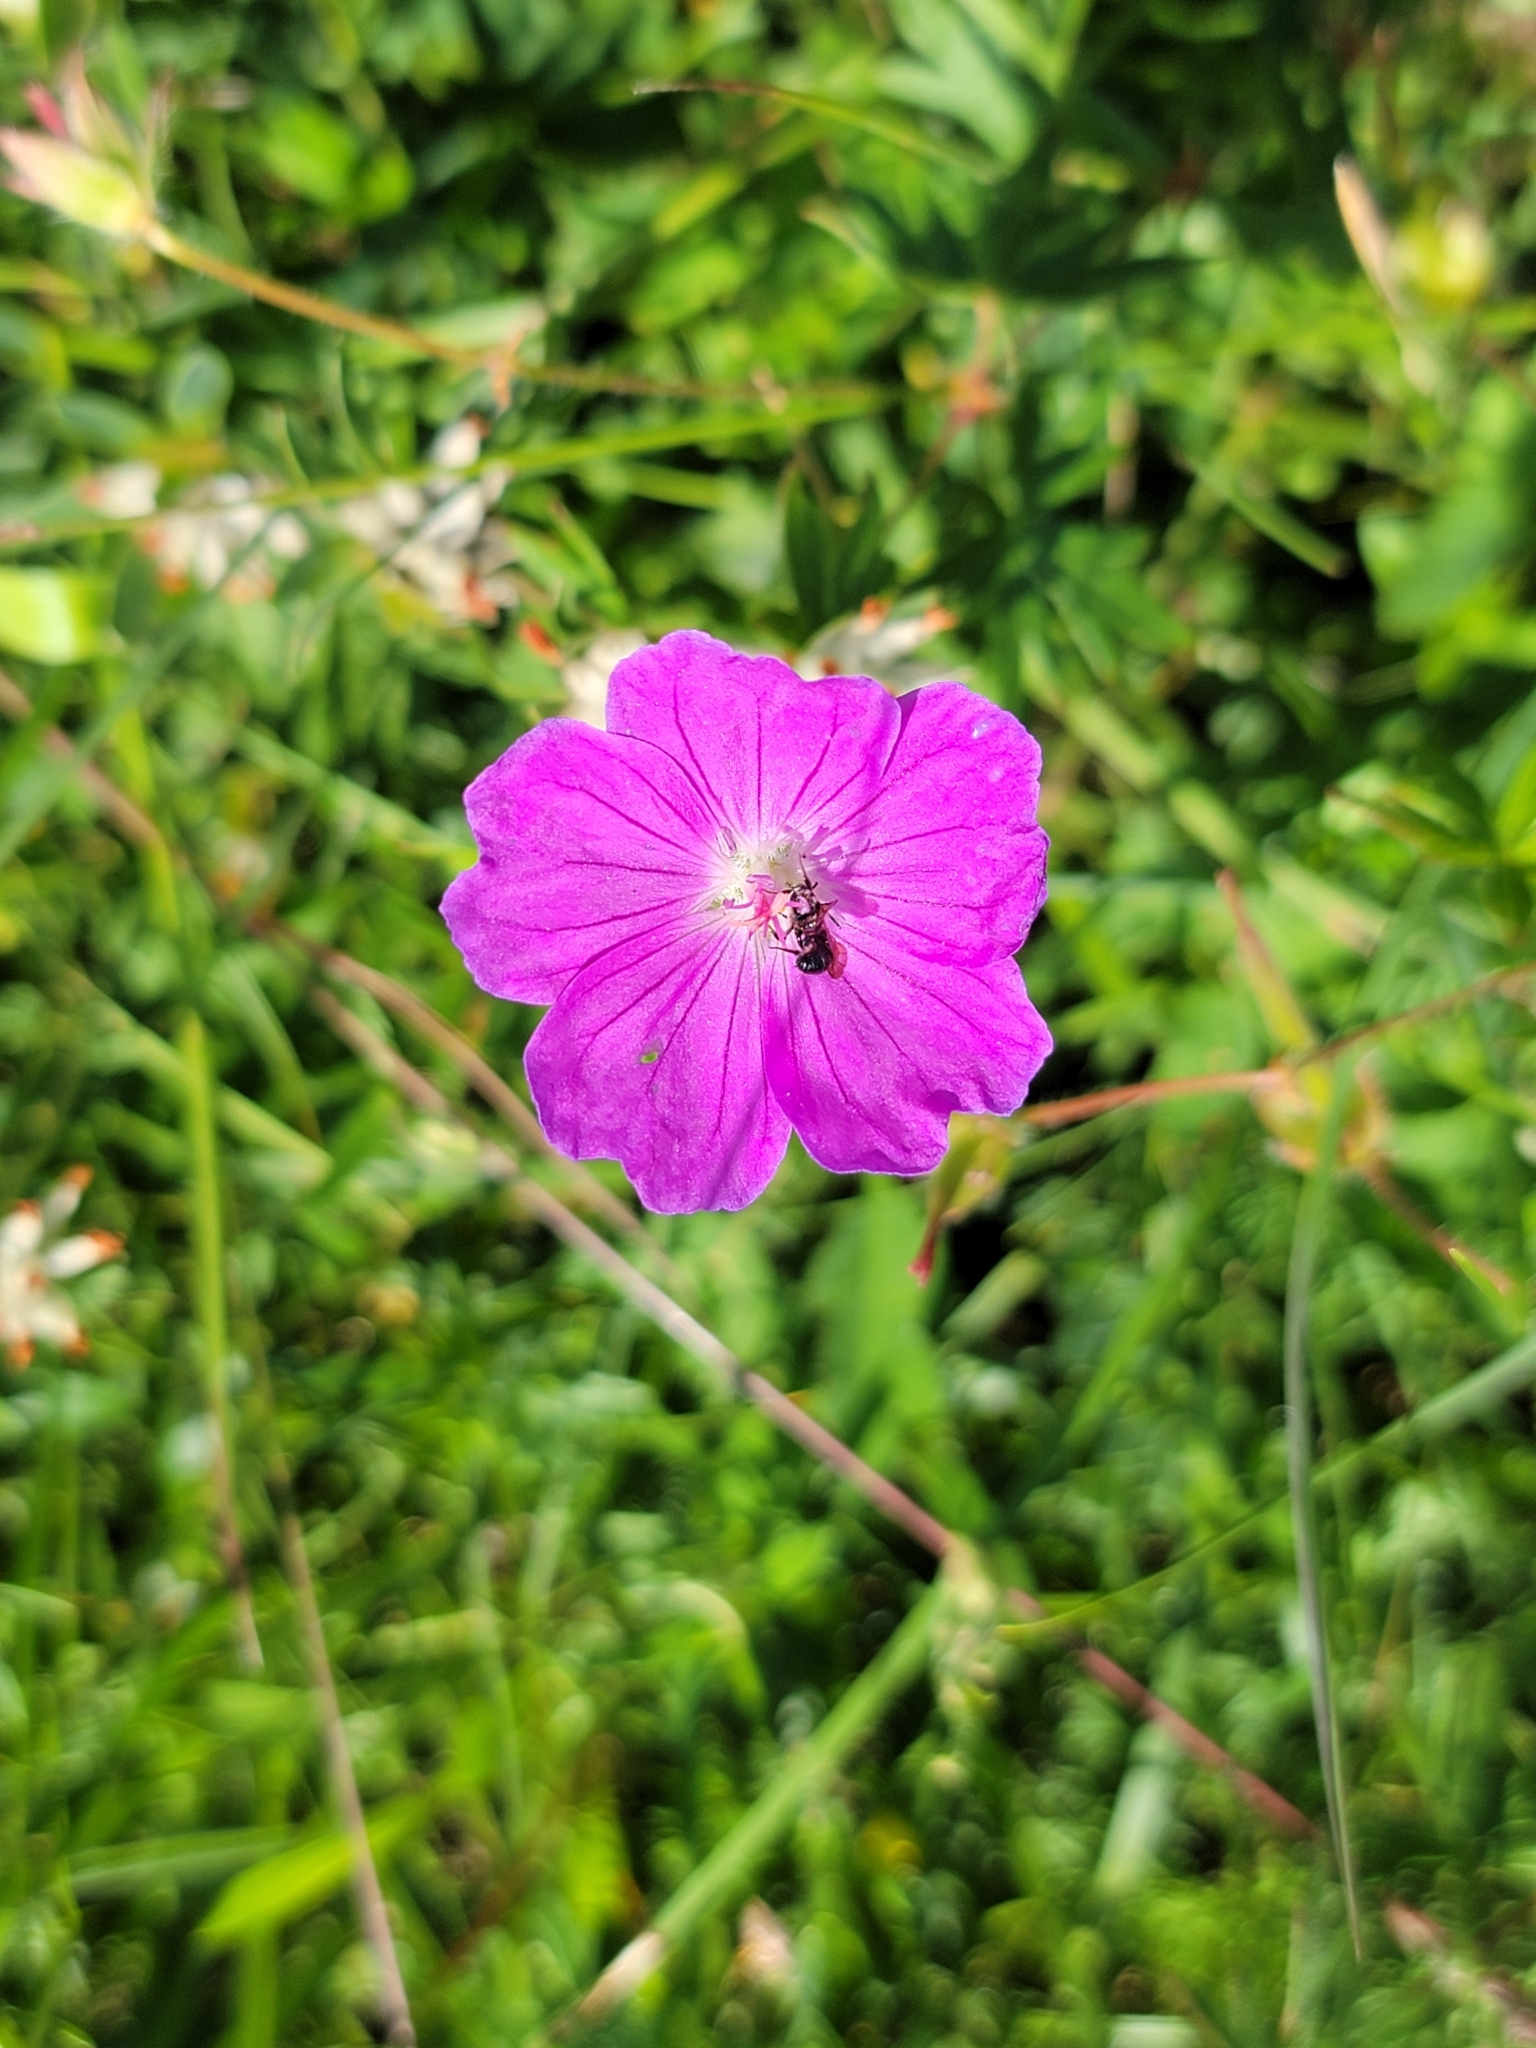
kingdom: Plantae
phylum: Tracheophyta
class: Magnoliopsida
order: Geraniales
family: Geraniaceae
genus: Geranium
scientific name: Geranium sanguineum
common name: Bloody crane's-bill
